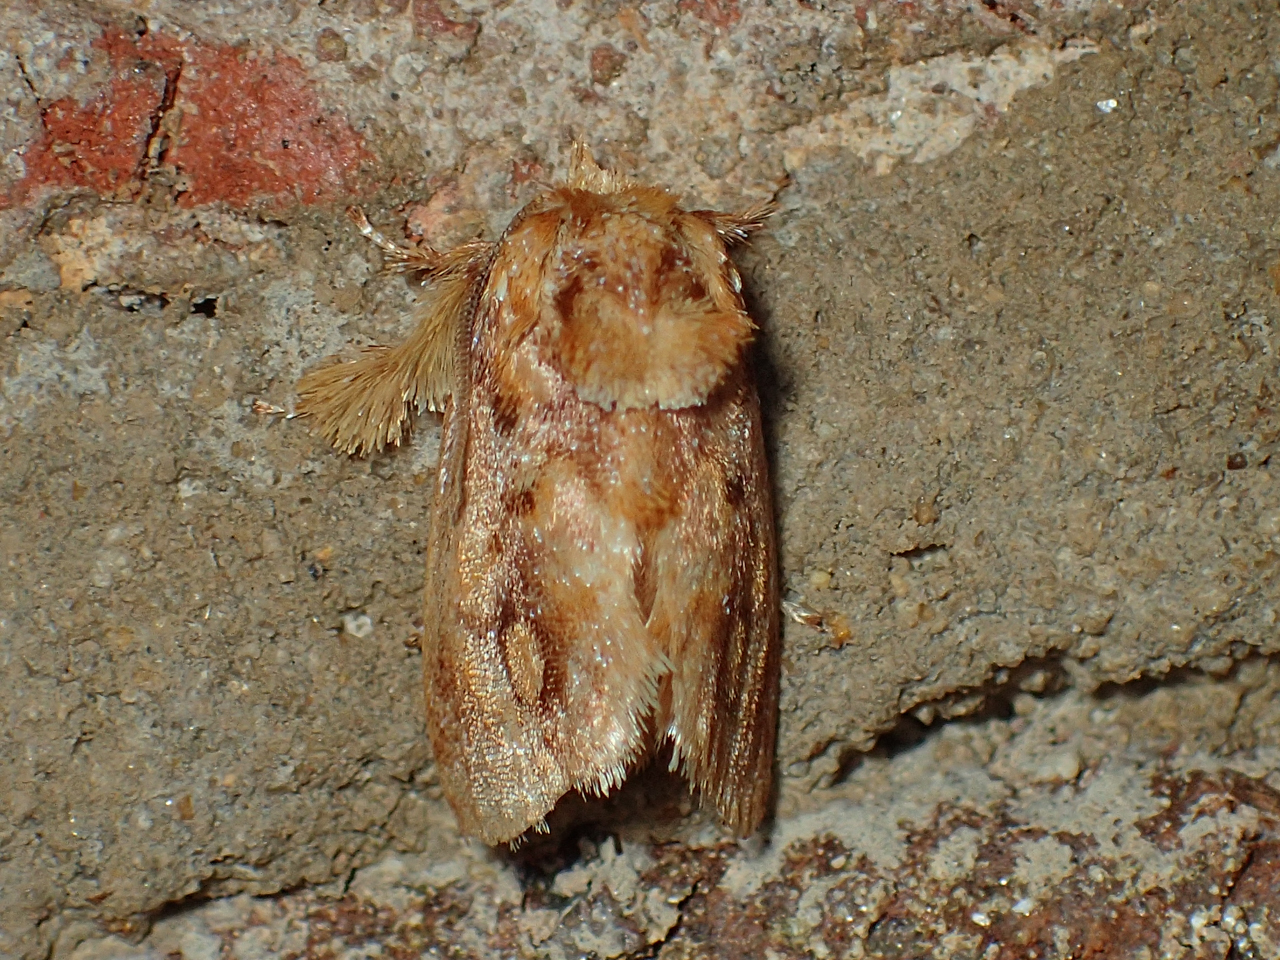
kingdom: Animalia
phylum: Arthropoda
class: Insecta
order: Lepidoptera
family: Limacodidae
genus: Isochaetes
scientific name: Isochaetes beutenmuelleri
